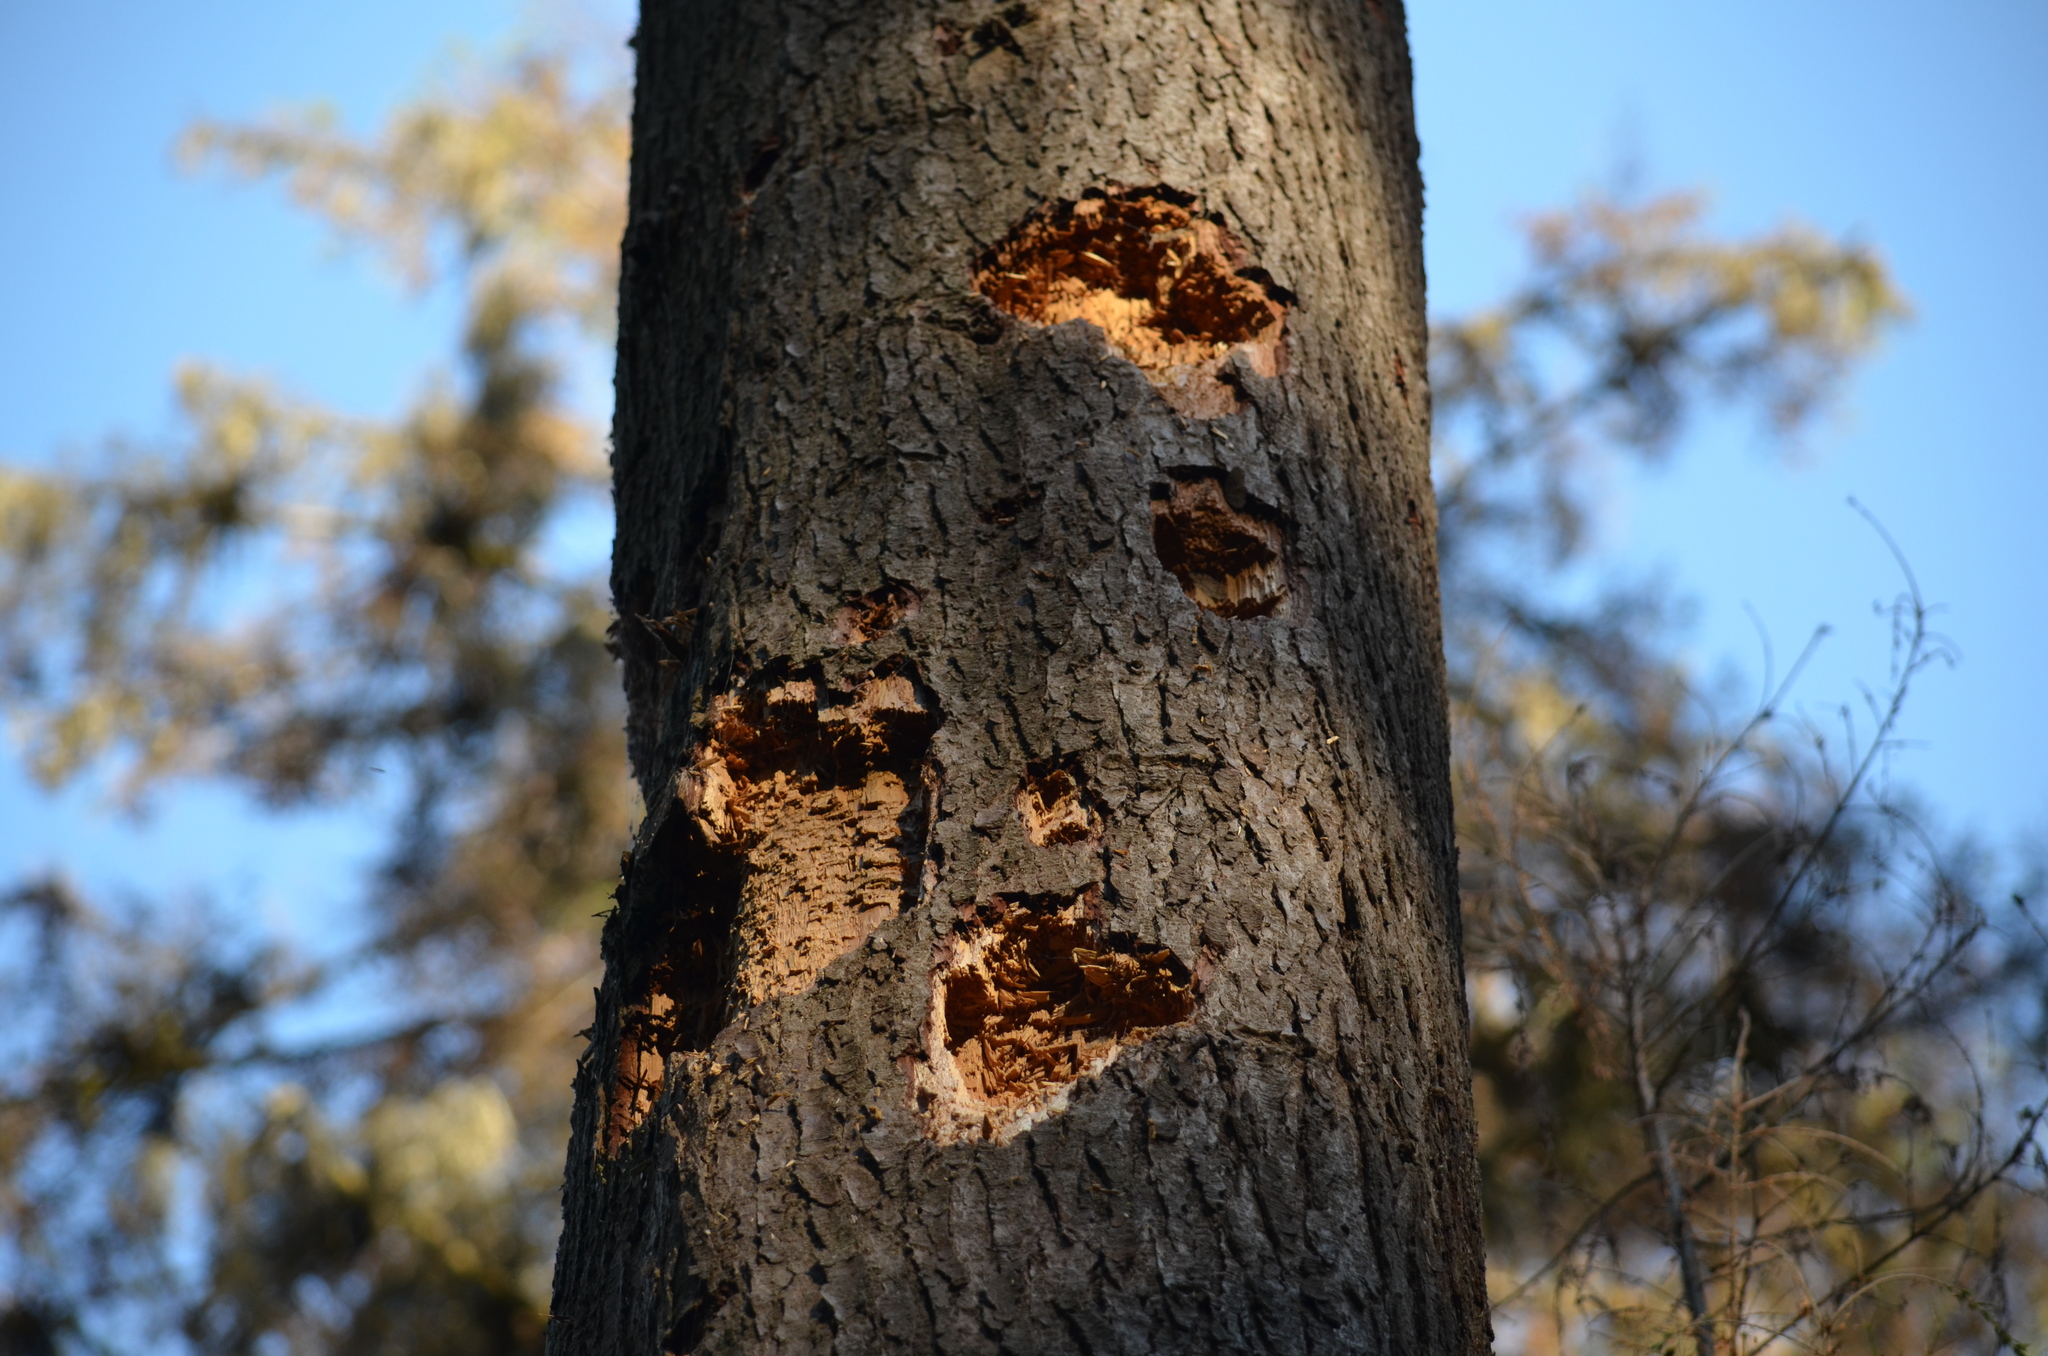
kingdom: Animalia
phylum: Chordata
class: Aves
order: Piciformes
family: Picidae
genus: Dryocopus
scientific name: Dryocopus pileatus
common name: Pileated woodpecker
